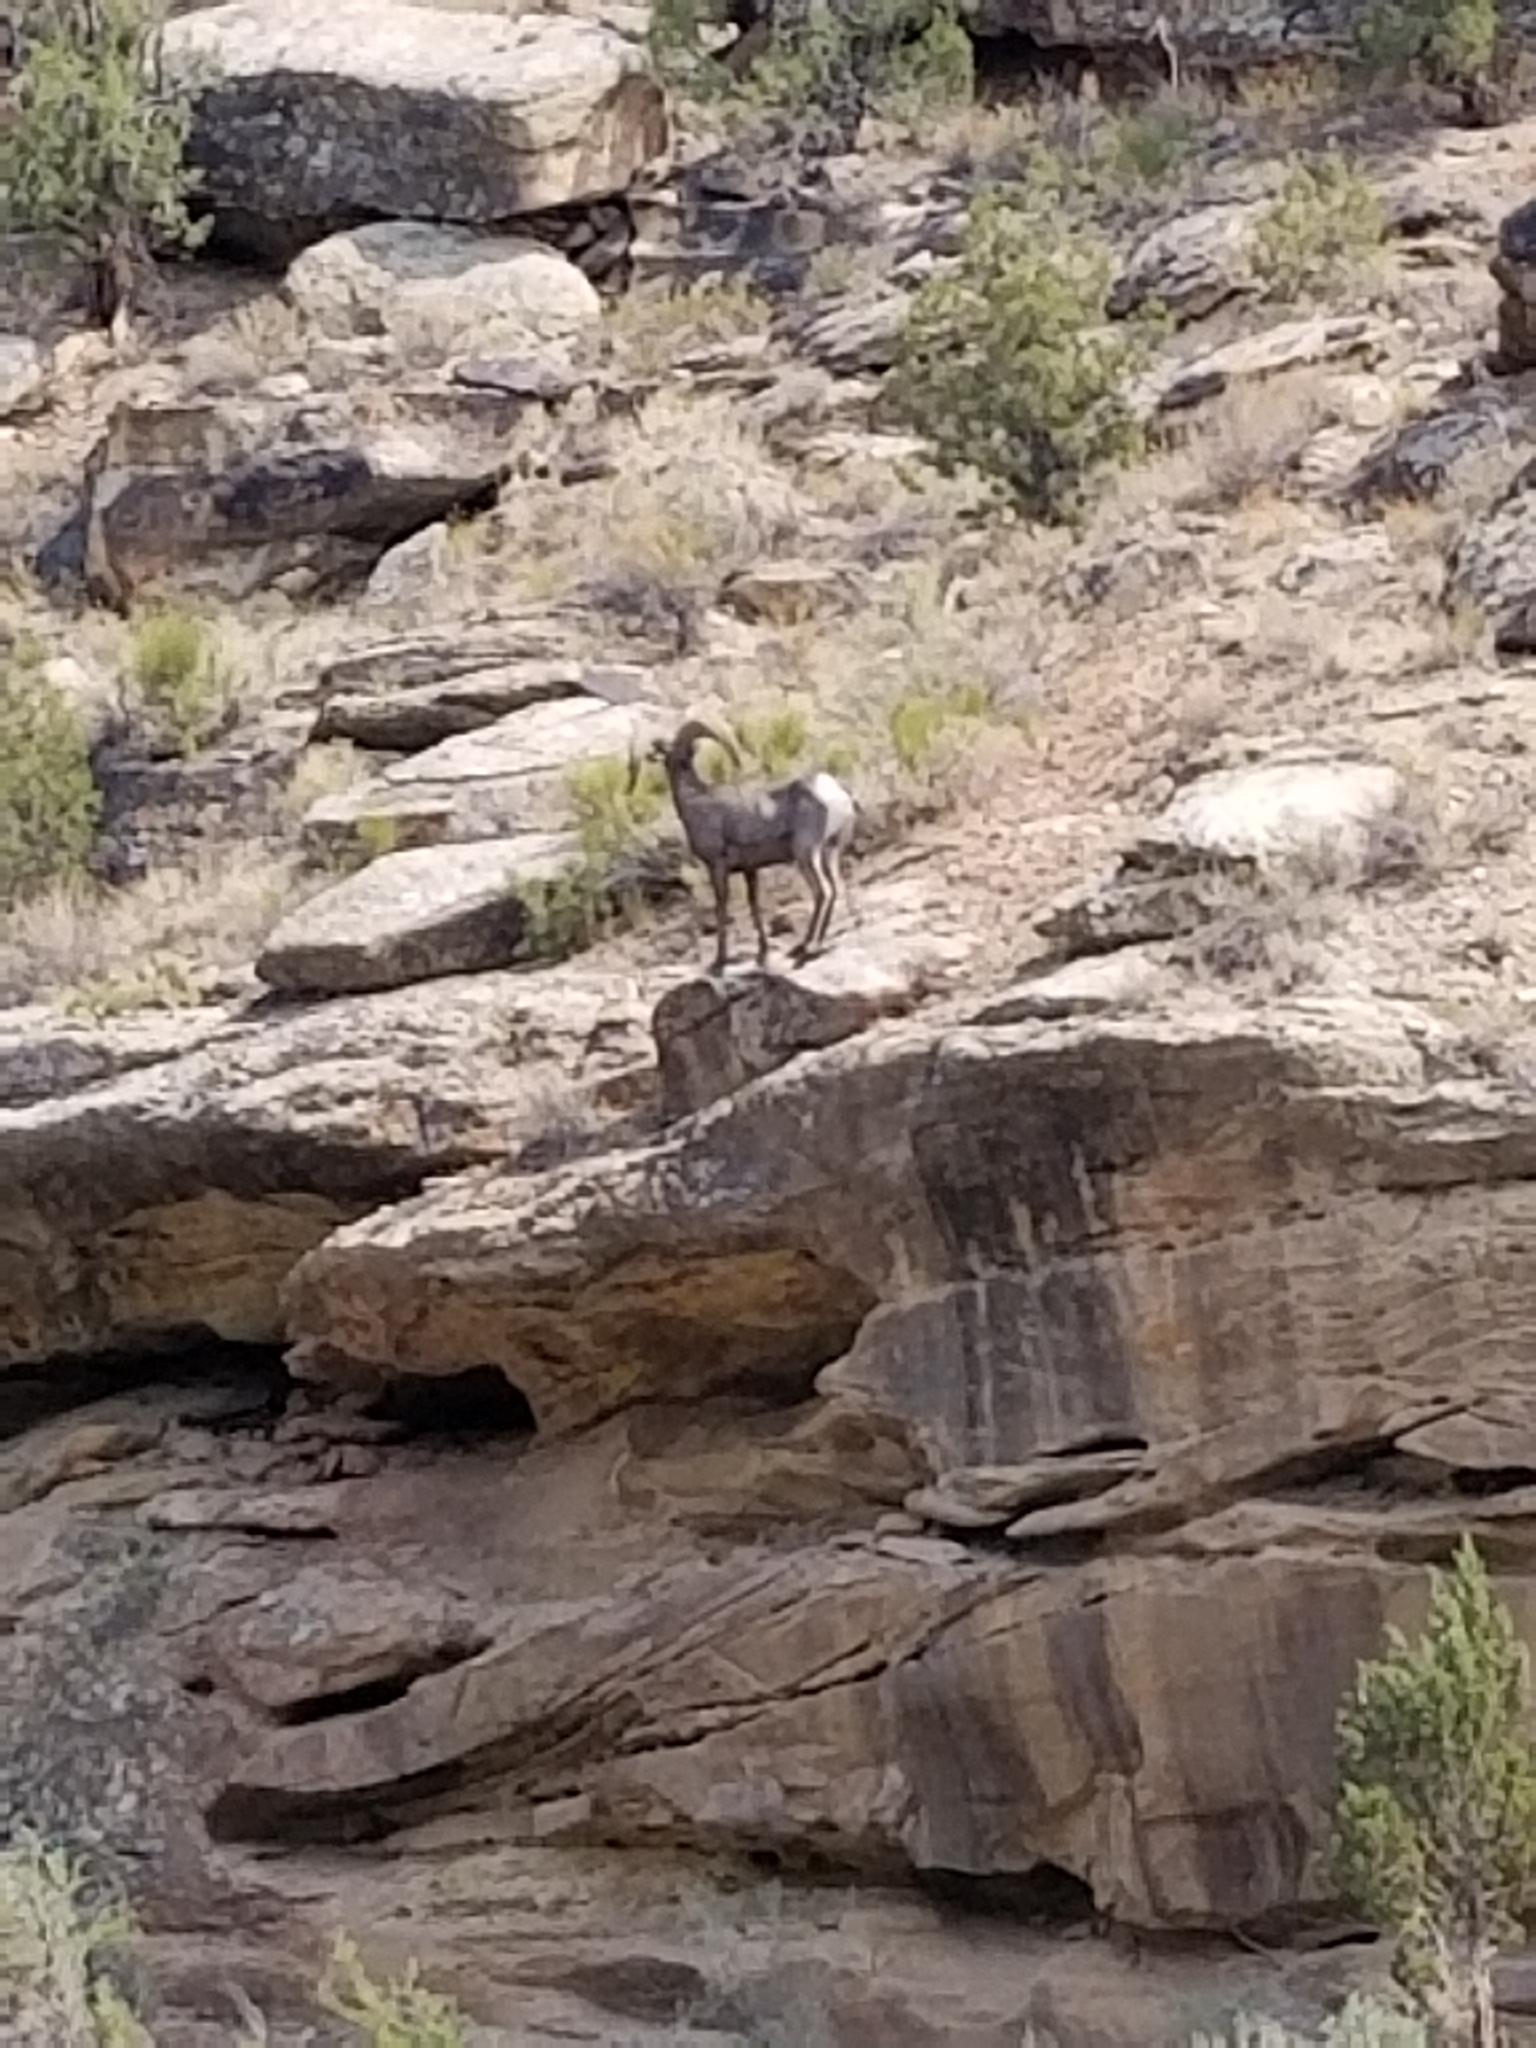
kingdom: Animalia
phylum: Chordata
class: Mammalia
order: Artiodactyla
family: Bovidae
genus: Ovis
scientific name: Ovis canadensis
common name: Bighorn sheep
